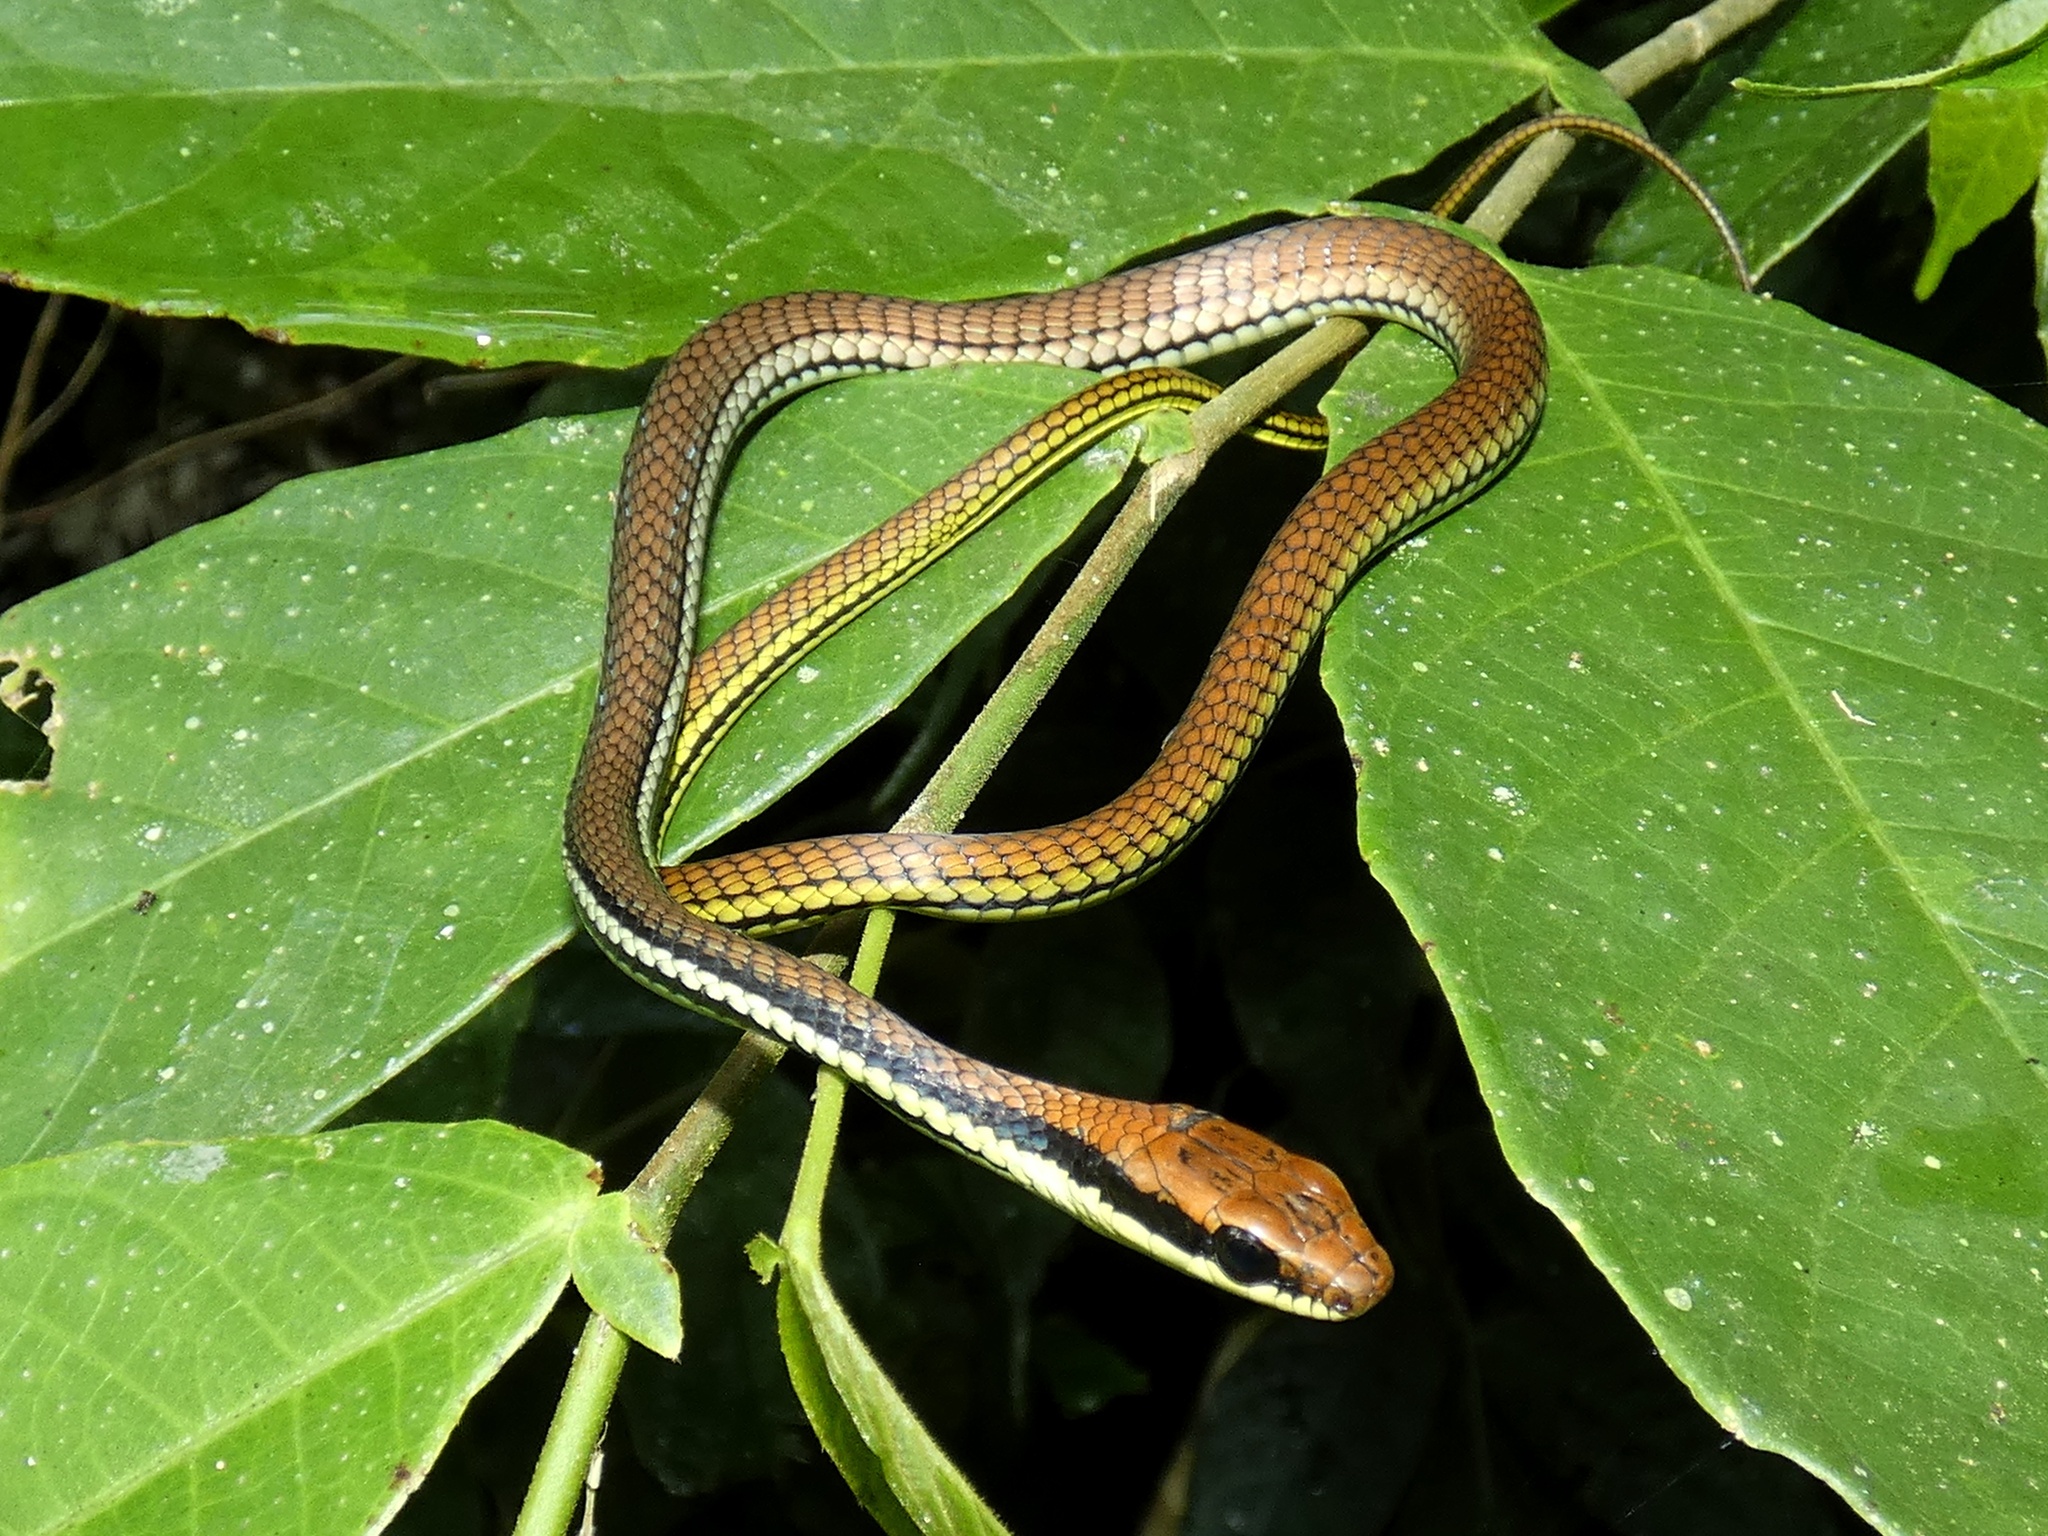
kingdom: Animalia
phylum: Chordata
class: Squamata
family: Colubridae
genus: Dendrelaphis
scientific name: Dendrelaphis philippinensis
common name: Philippine bronze-back tree snakeweinell
